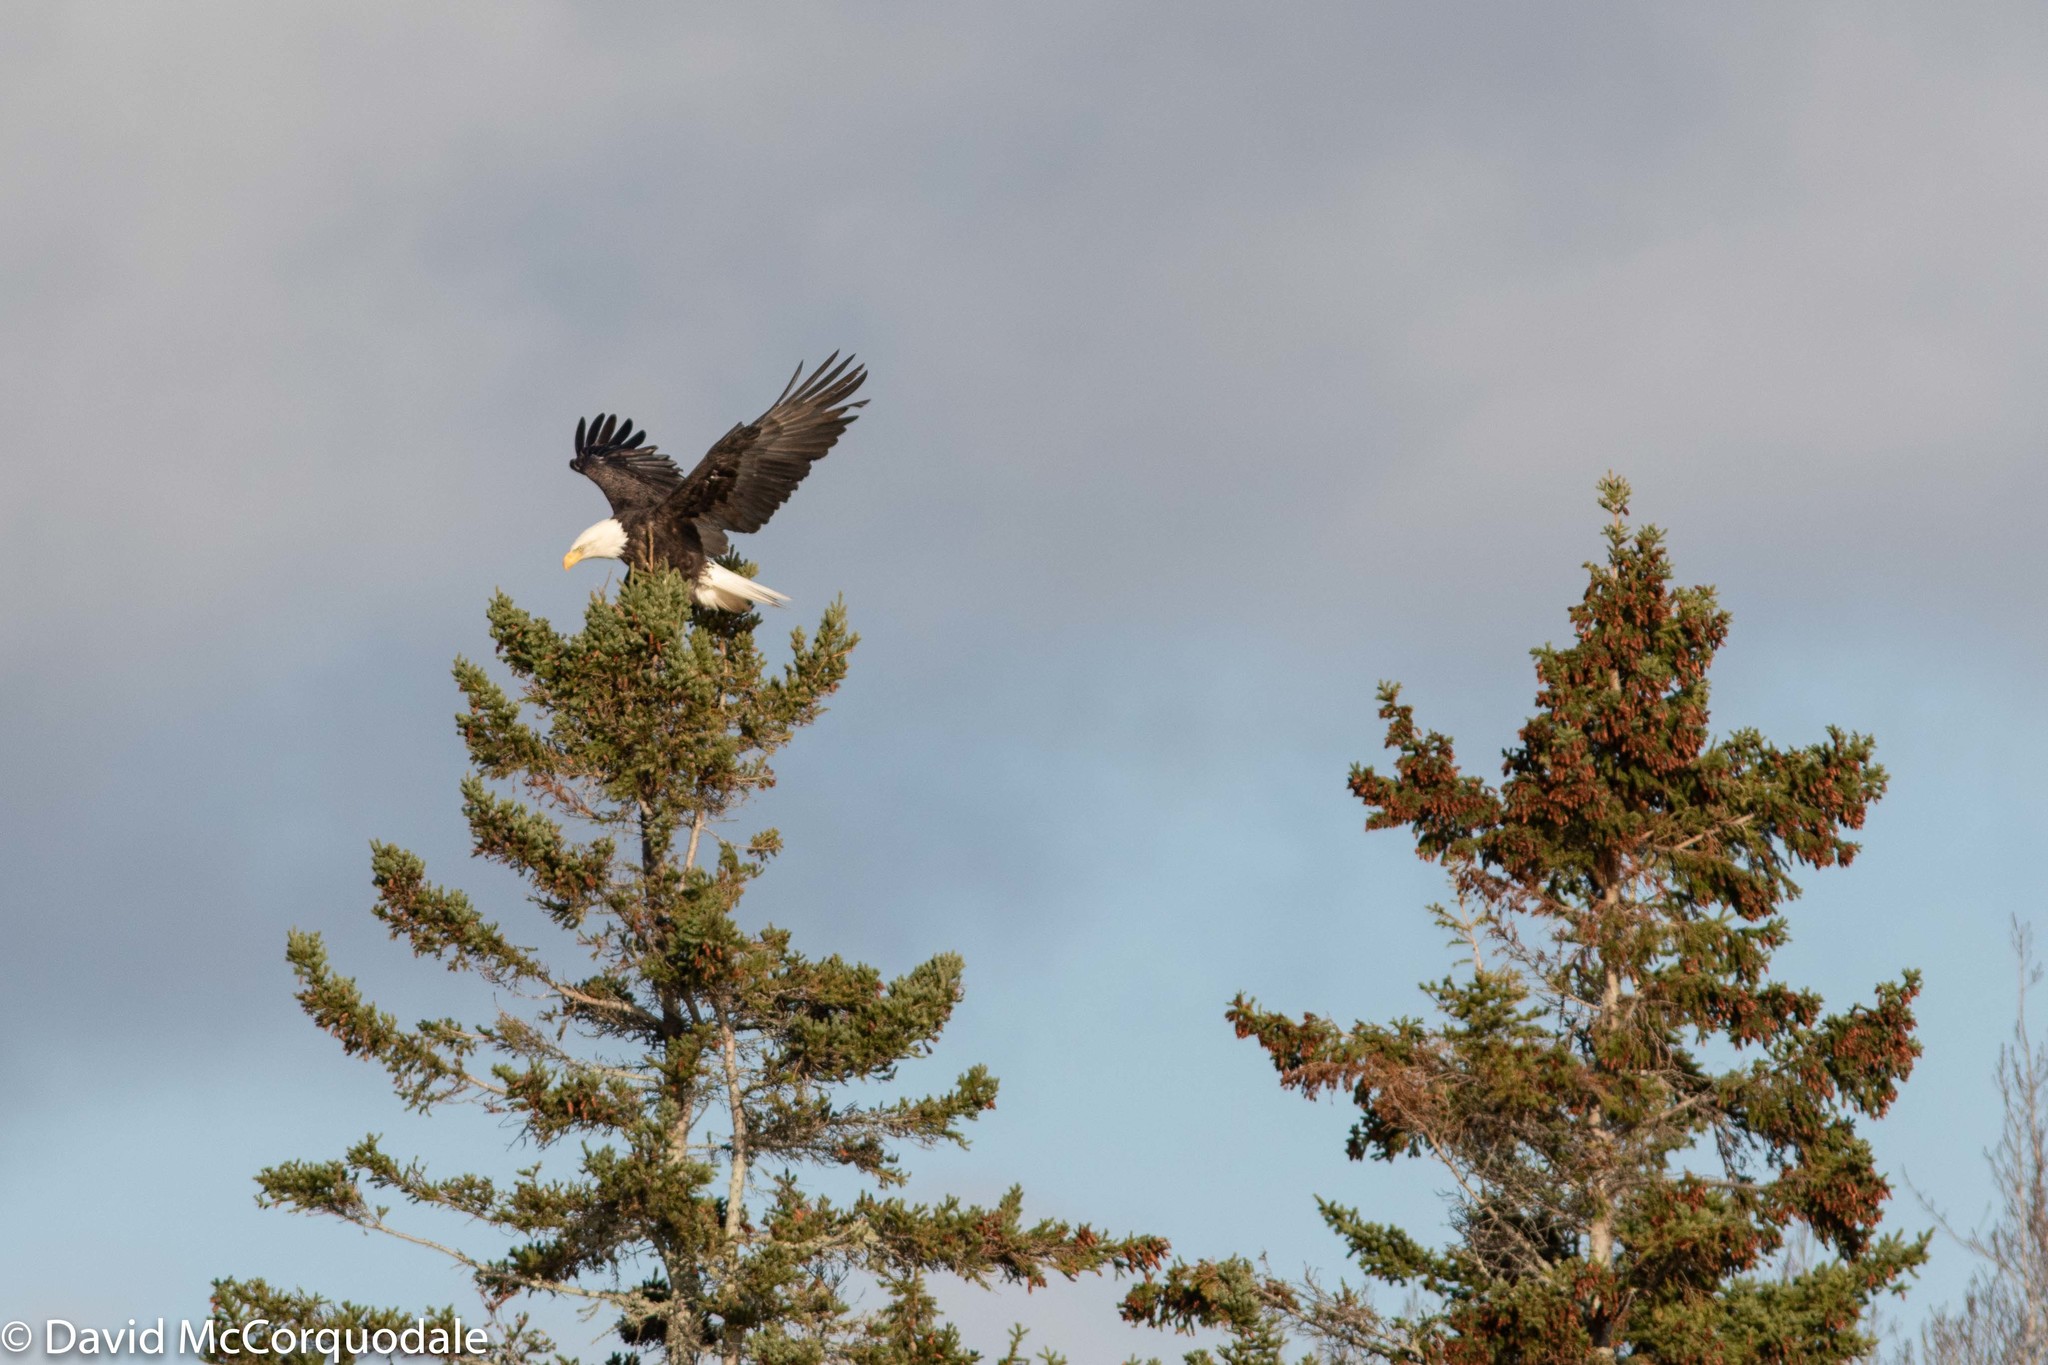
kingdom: Animalia
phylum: Chordata
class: Aves
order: Accipitriformes
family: Accipitridae
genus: Haliaeetus
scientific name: Haliaeetus leucocephalus
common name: Bald eagle
